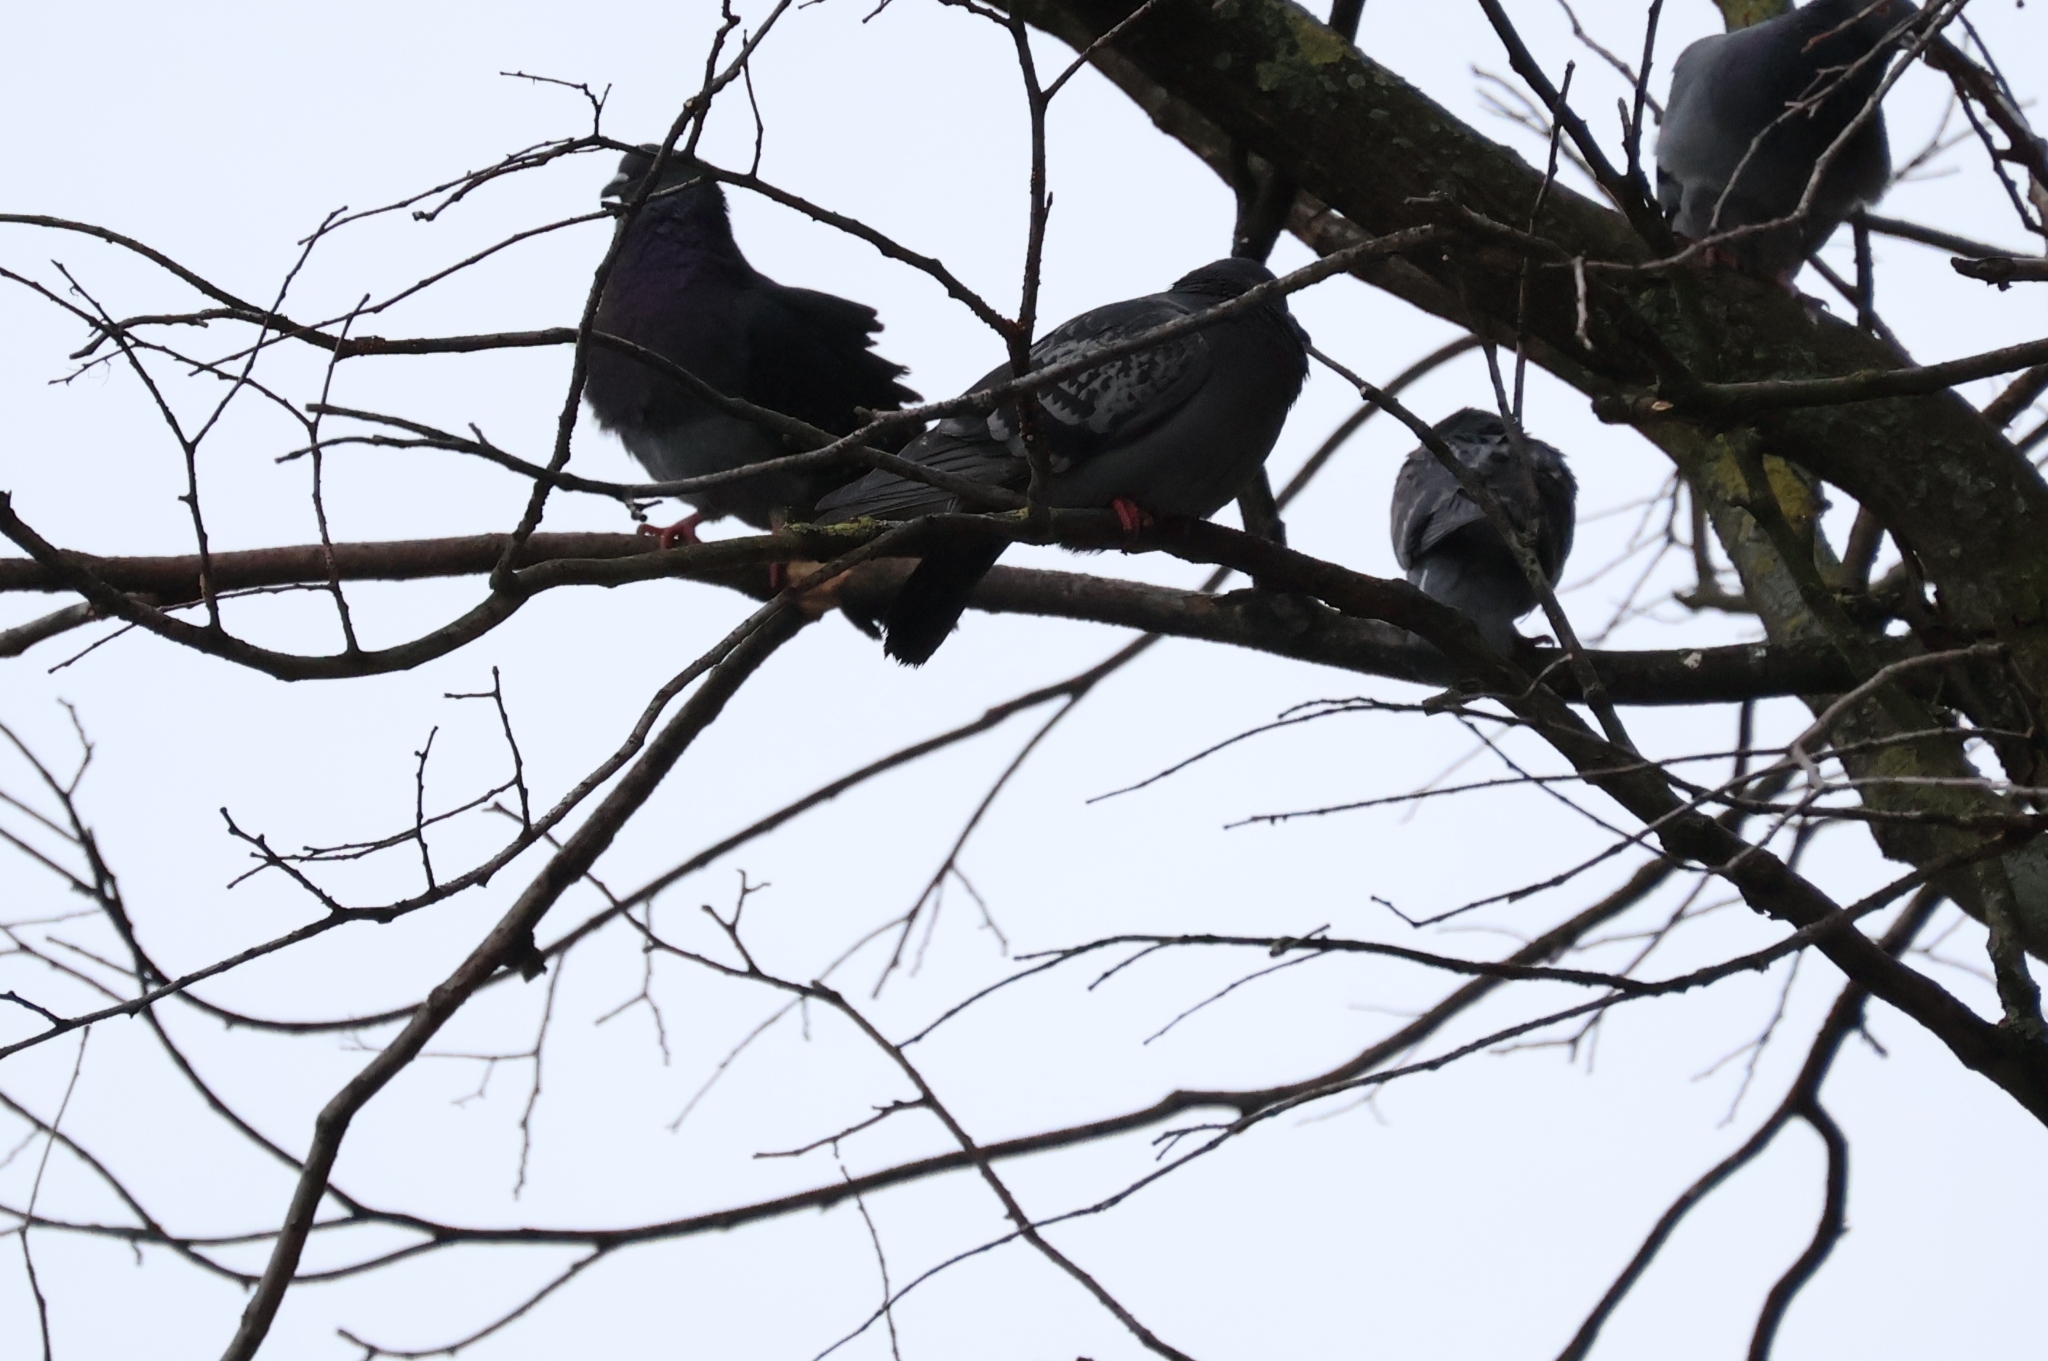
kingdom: Animalia
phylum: Chordata
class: Aves
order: Columbiformes
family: Columbidae
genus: Columba
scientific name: Columba livia
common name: Rock pigeon
